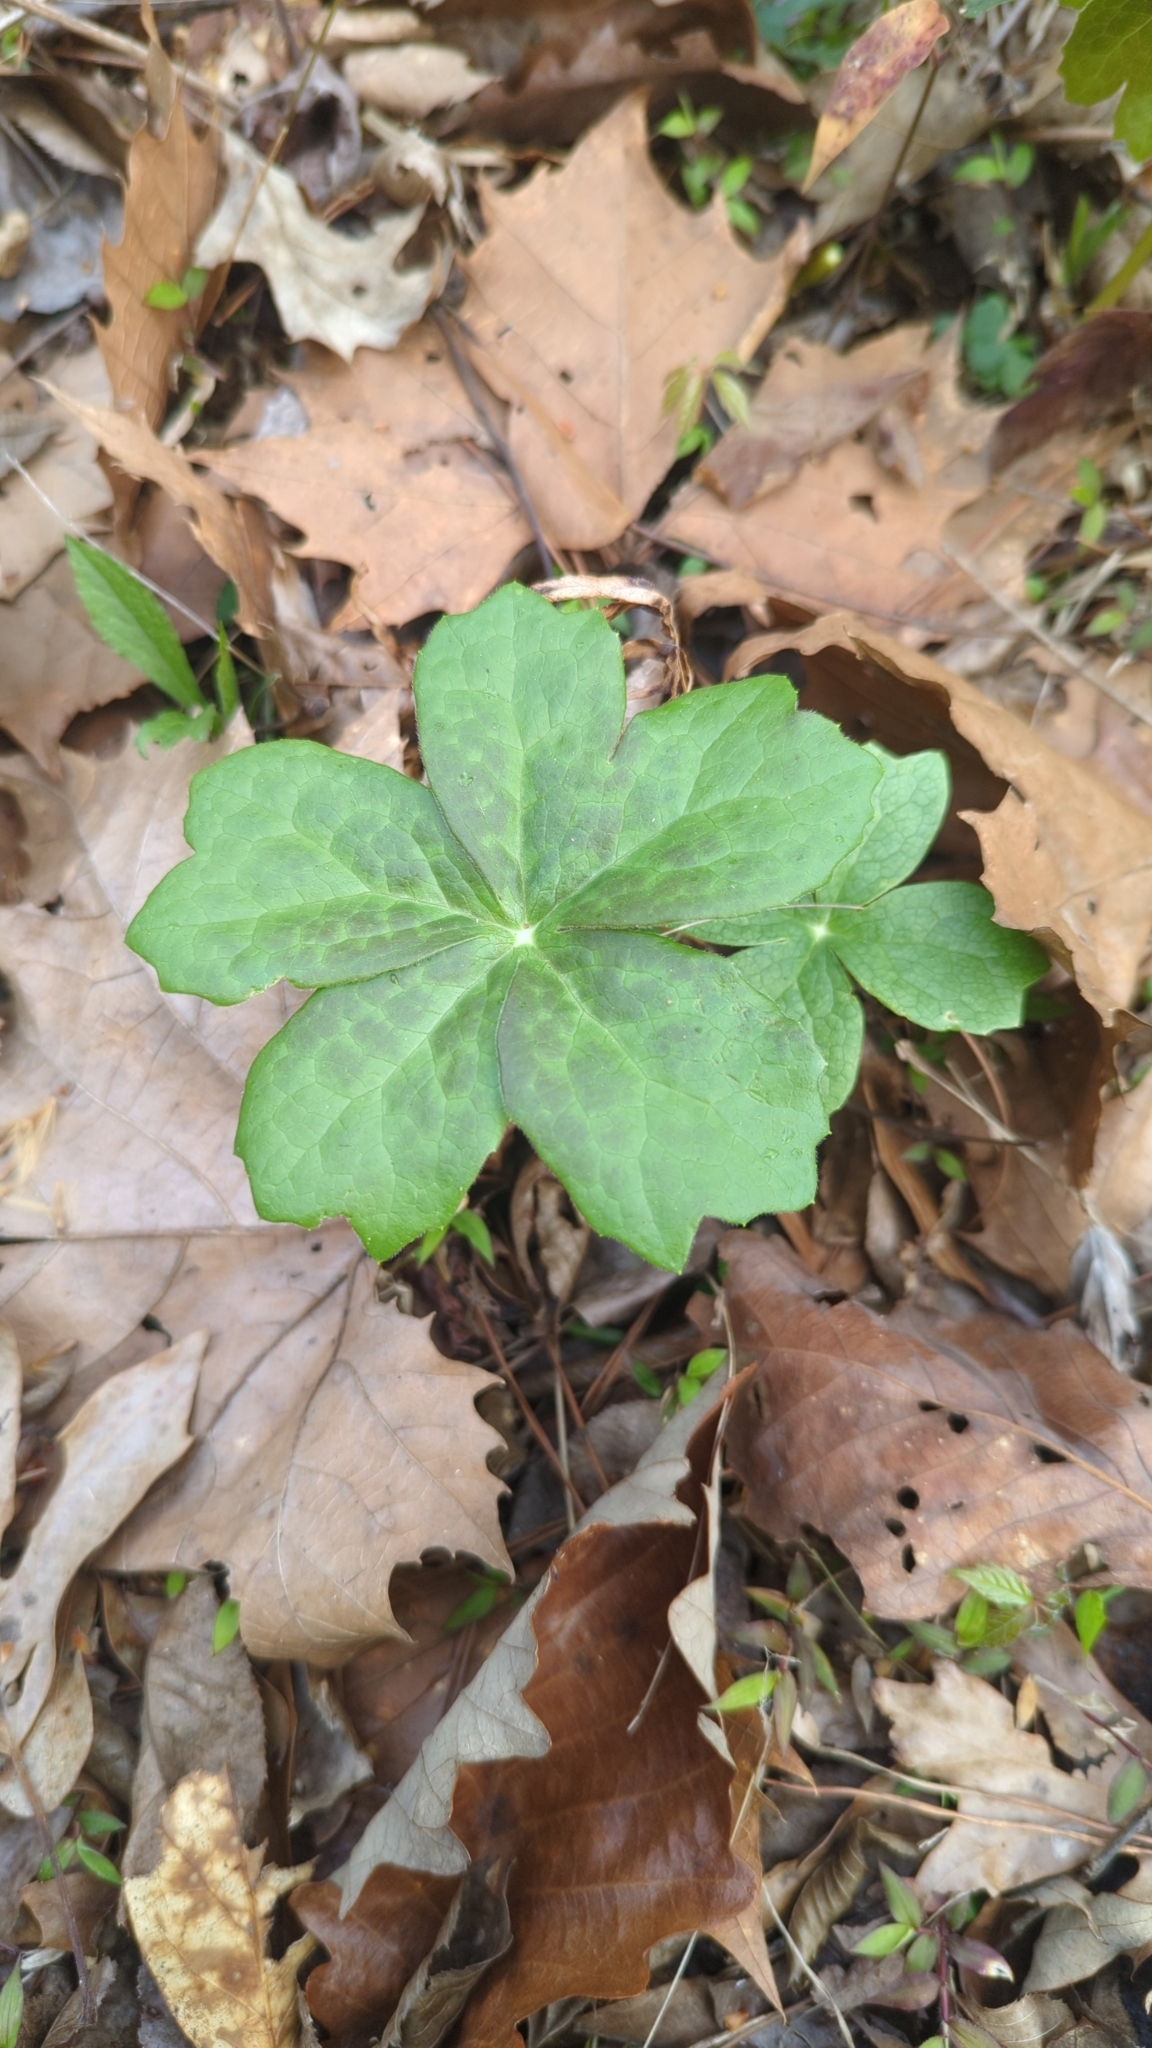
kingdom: Plantae
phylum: Tracheophyta
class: Magnoliopsida
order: Ranunculales
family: Berberidaceae
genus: Podophyllum
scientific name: Podophyllum peltatum
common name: Wild mandrake
